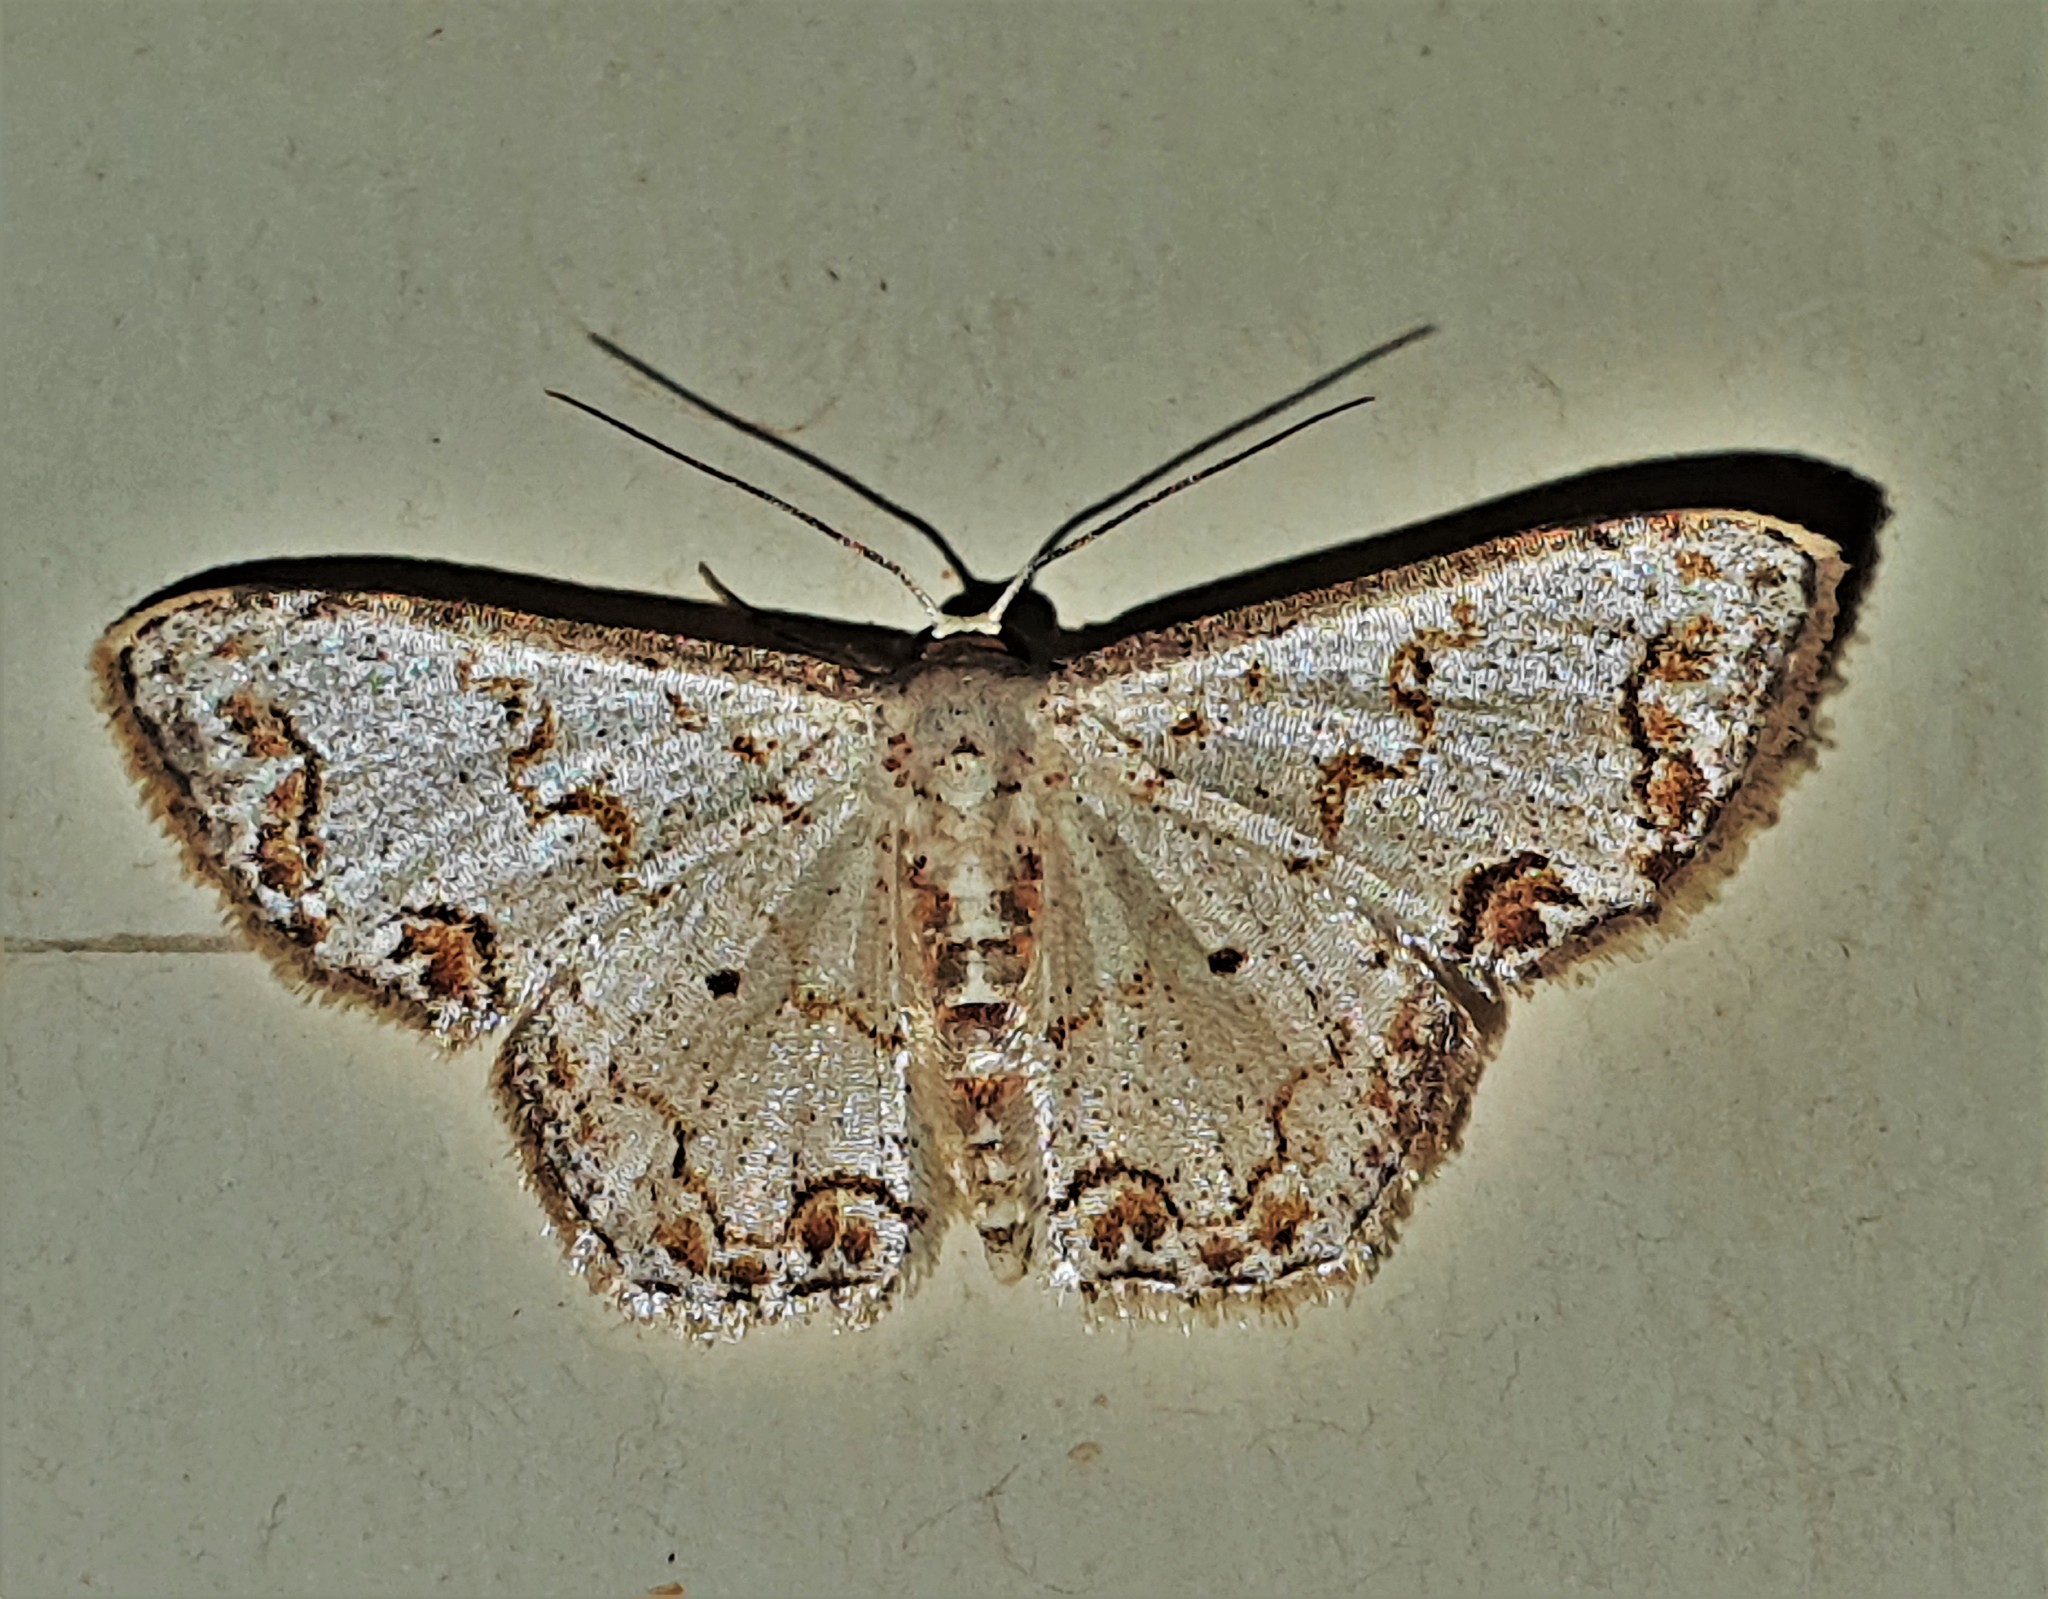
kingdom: Animalia
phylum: Arthropoda
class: Insecta
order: Lepidoptera
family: Geometridae
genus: Idaea
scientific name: Idaea expolitata
